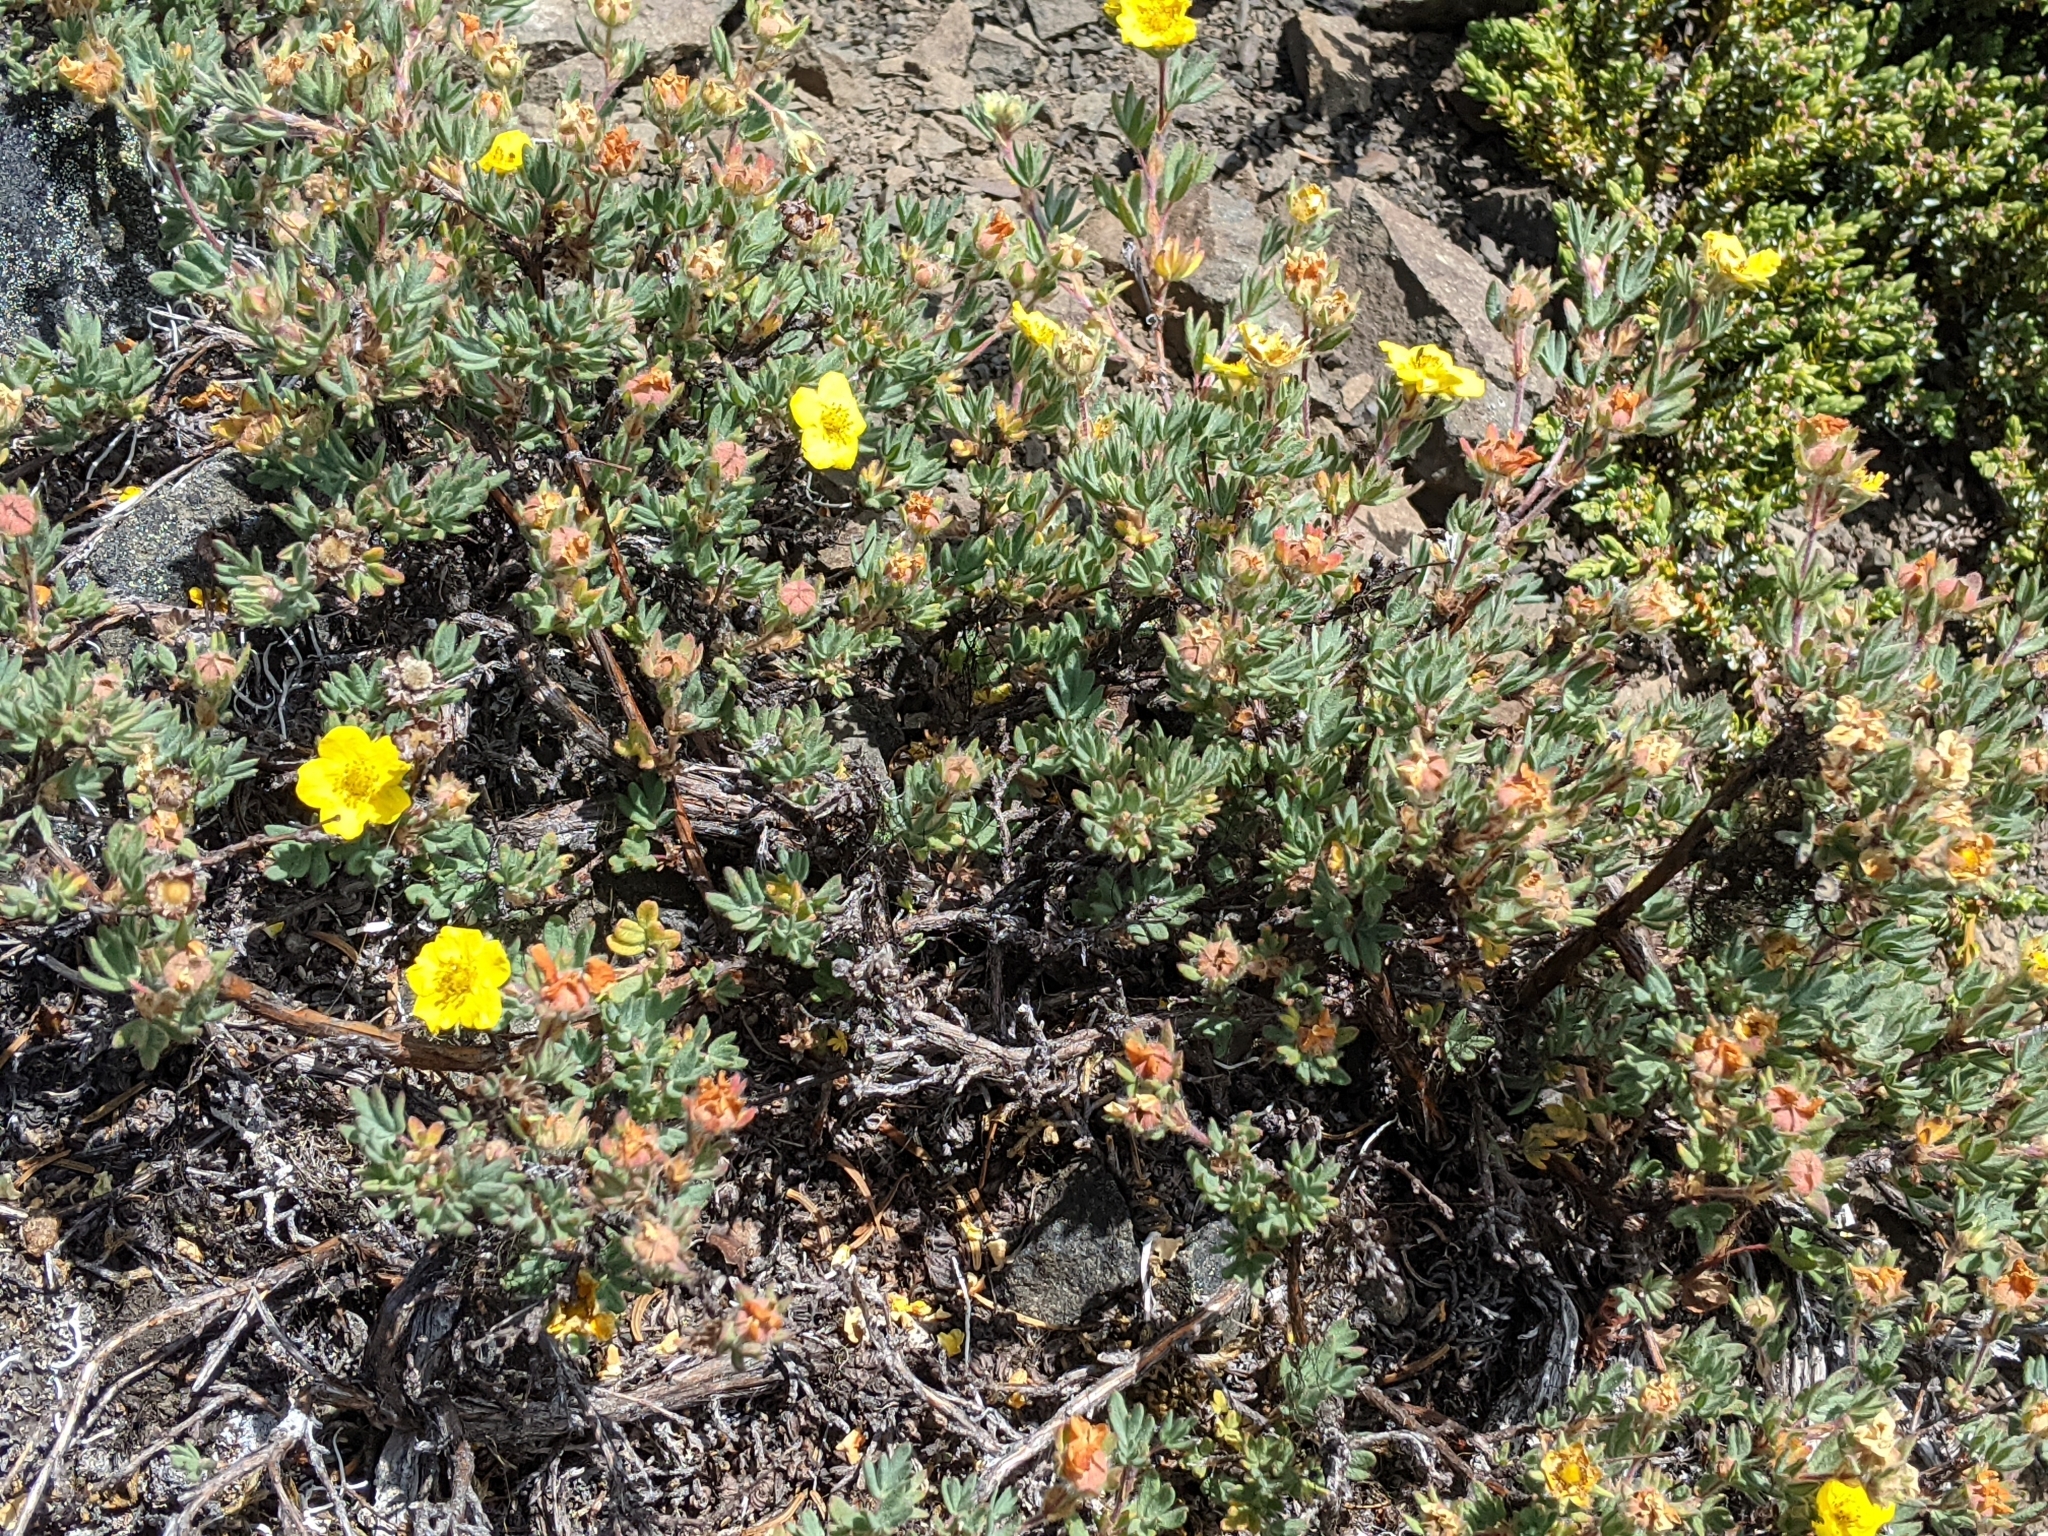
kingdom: Plantae
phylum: Tracheophyta
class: Magnoliopsida
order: Rosales
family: Rosaceae
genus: Dasiphora
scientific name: Dasiphora fruticosa
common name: Shrubby cinquefoil
